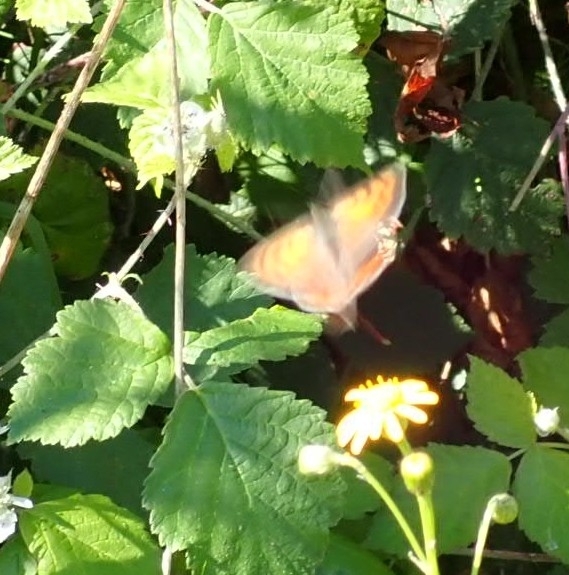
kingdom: Animalia
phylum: Arthropoda
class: Insecta
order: Lepidoptera
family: Lycaenidae
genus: Lycaena
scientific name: Lycaena phlaeas
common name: Small copper
